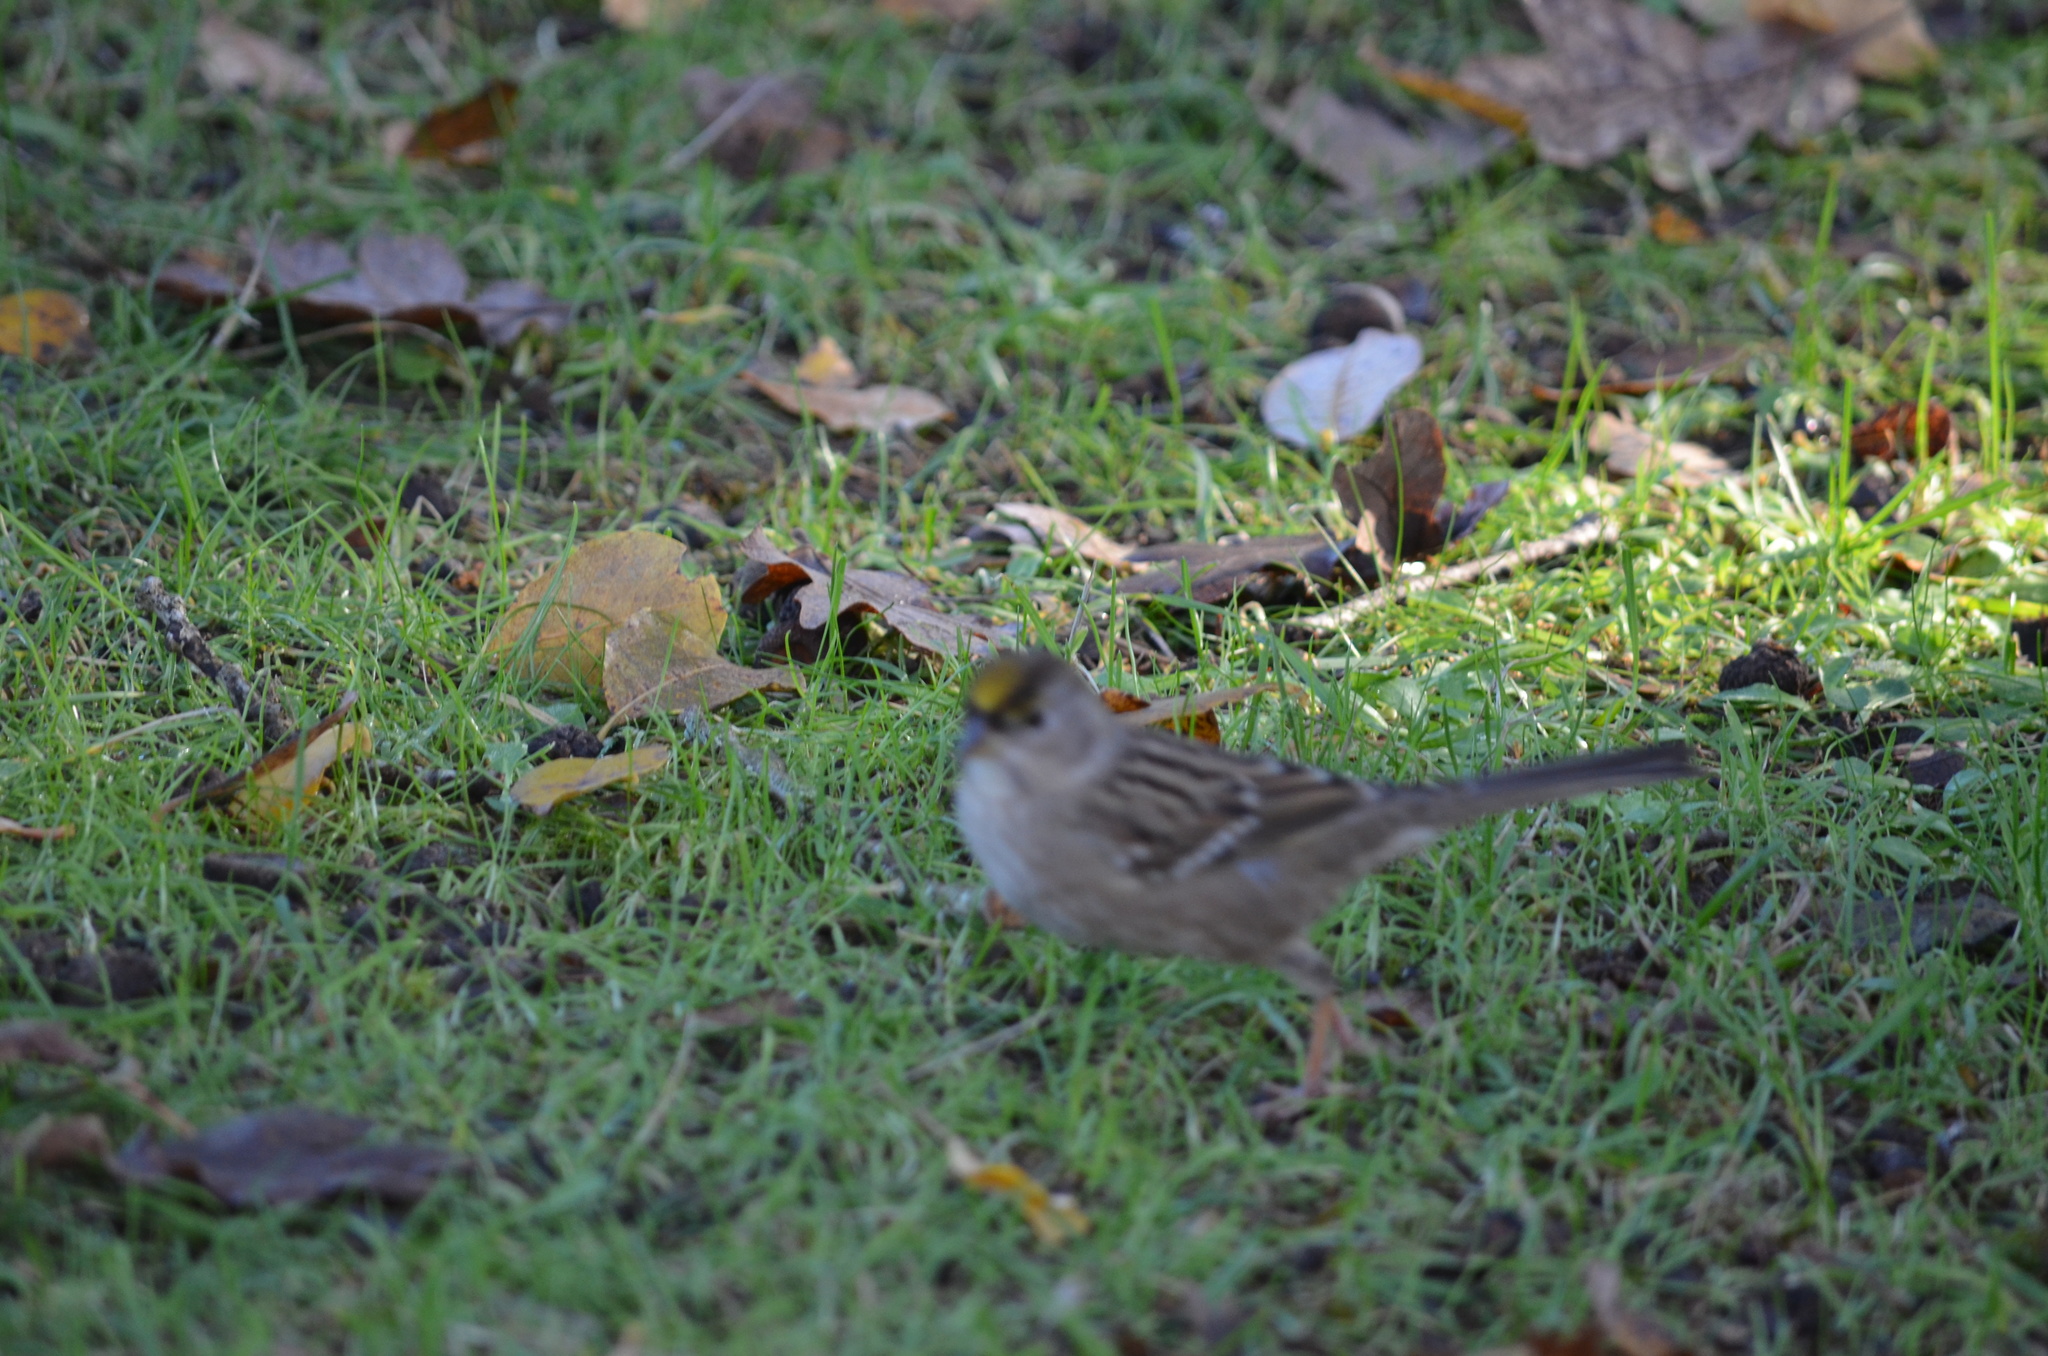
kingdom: Animalia
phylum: Chordata
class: Aves
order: Passeriformes
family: Passerellidae
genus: Zonotrichia
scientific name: Zonotrichia atricapilla
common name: Golden-crowned sparrow
